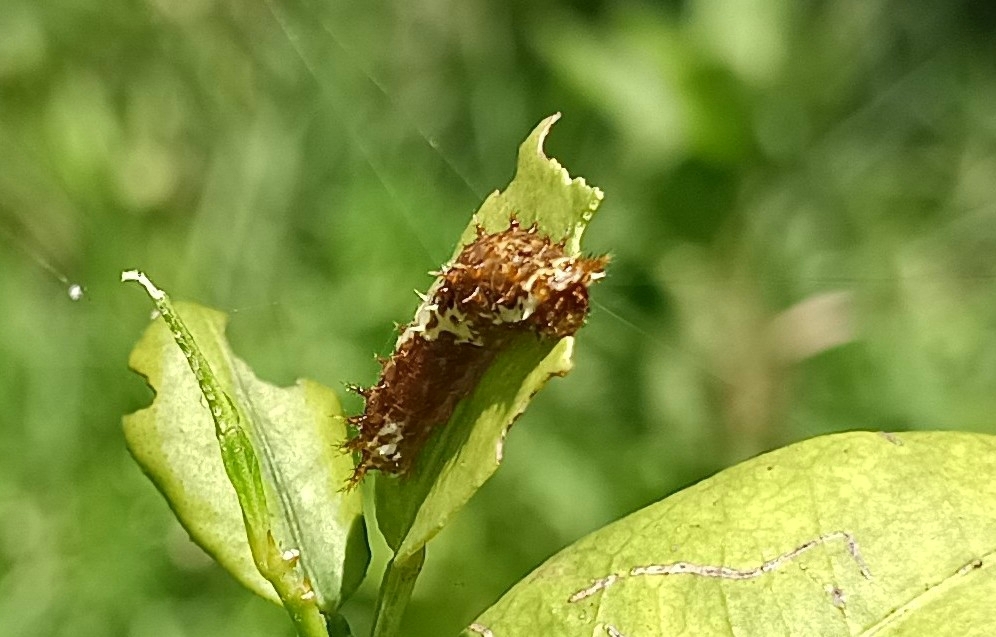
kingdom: Animalia
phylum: Arthropoda
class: Insecta
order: Lepidoptera
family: Papilionidae
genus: Papilio
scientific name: Papilio demoleus
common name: Lime butterfly
